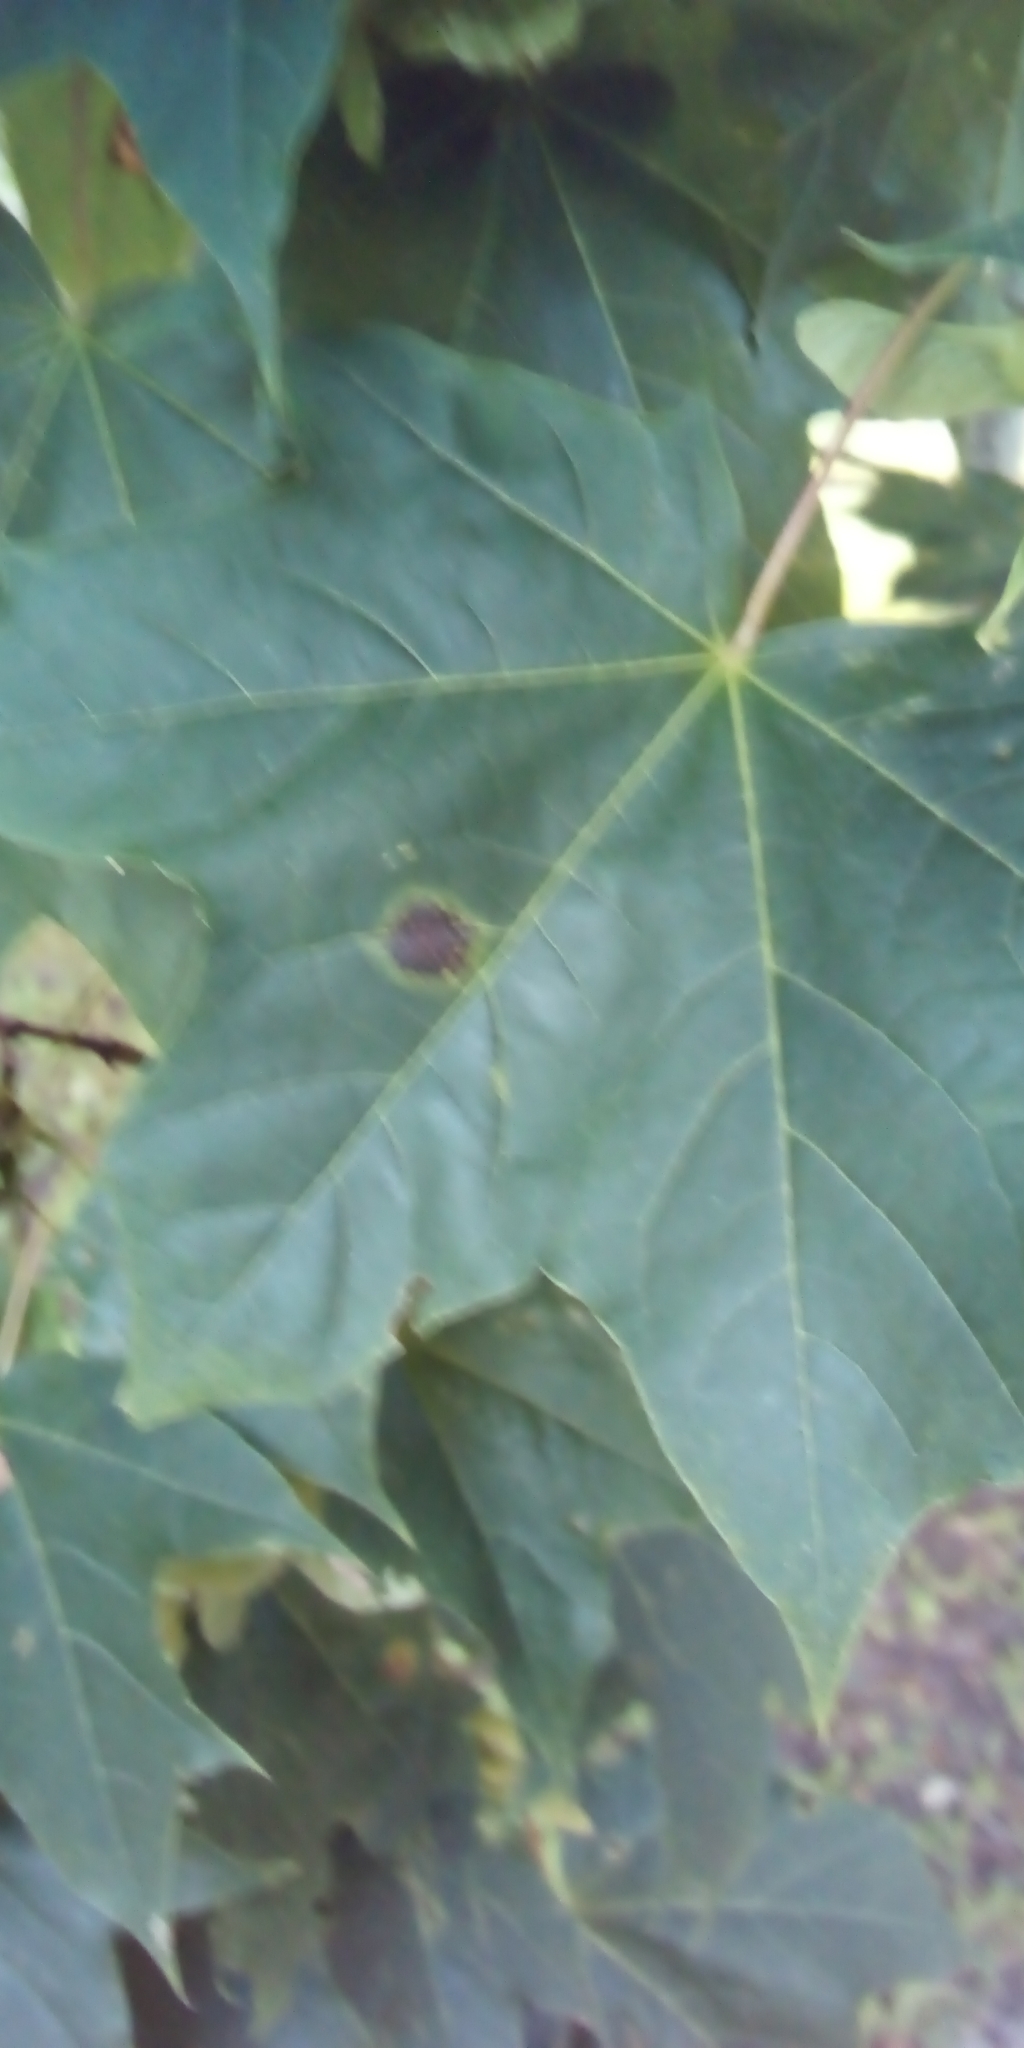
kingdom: Fungi
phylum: Ascomycota
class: Leotiomycetes
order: Rhytismatales
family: Rhytismataceae
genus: Rhytisma
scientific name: Rhytisma acerinum
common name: European tar spot
